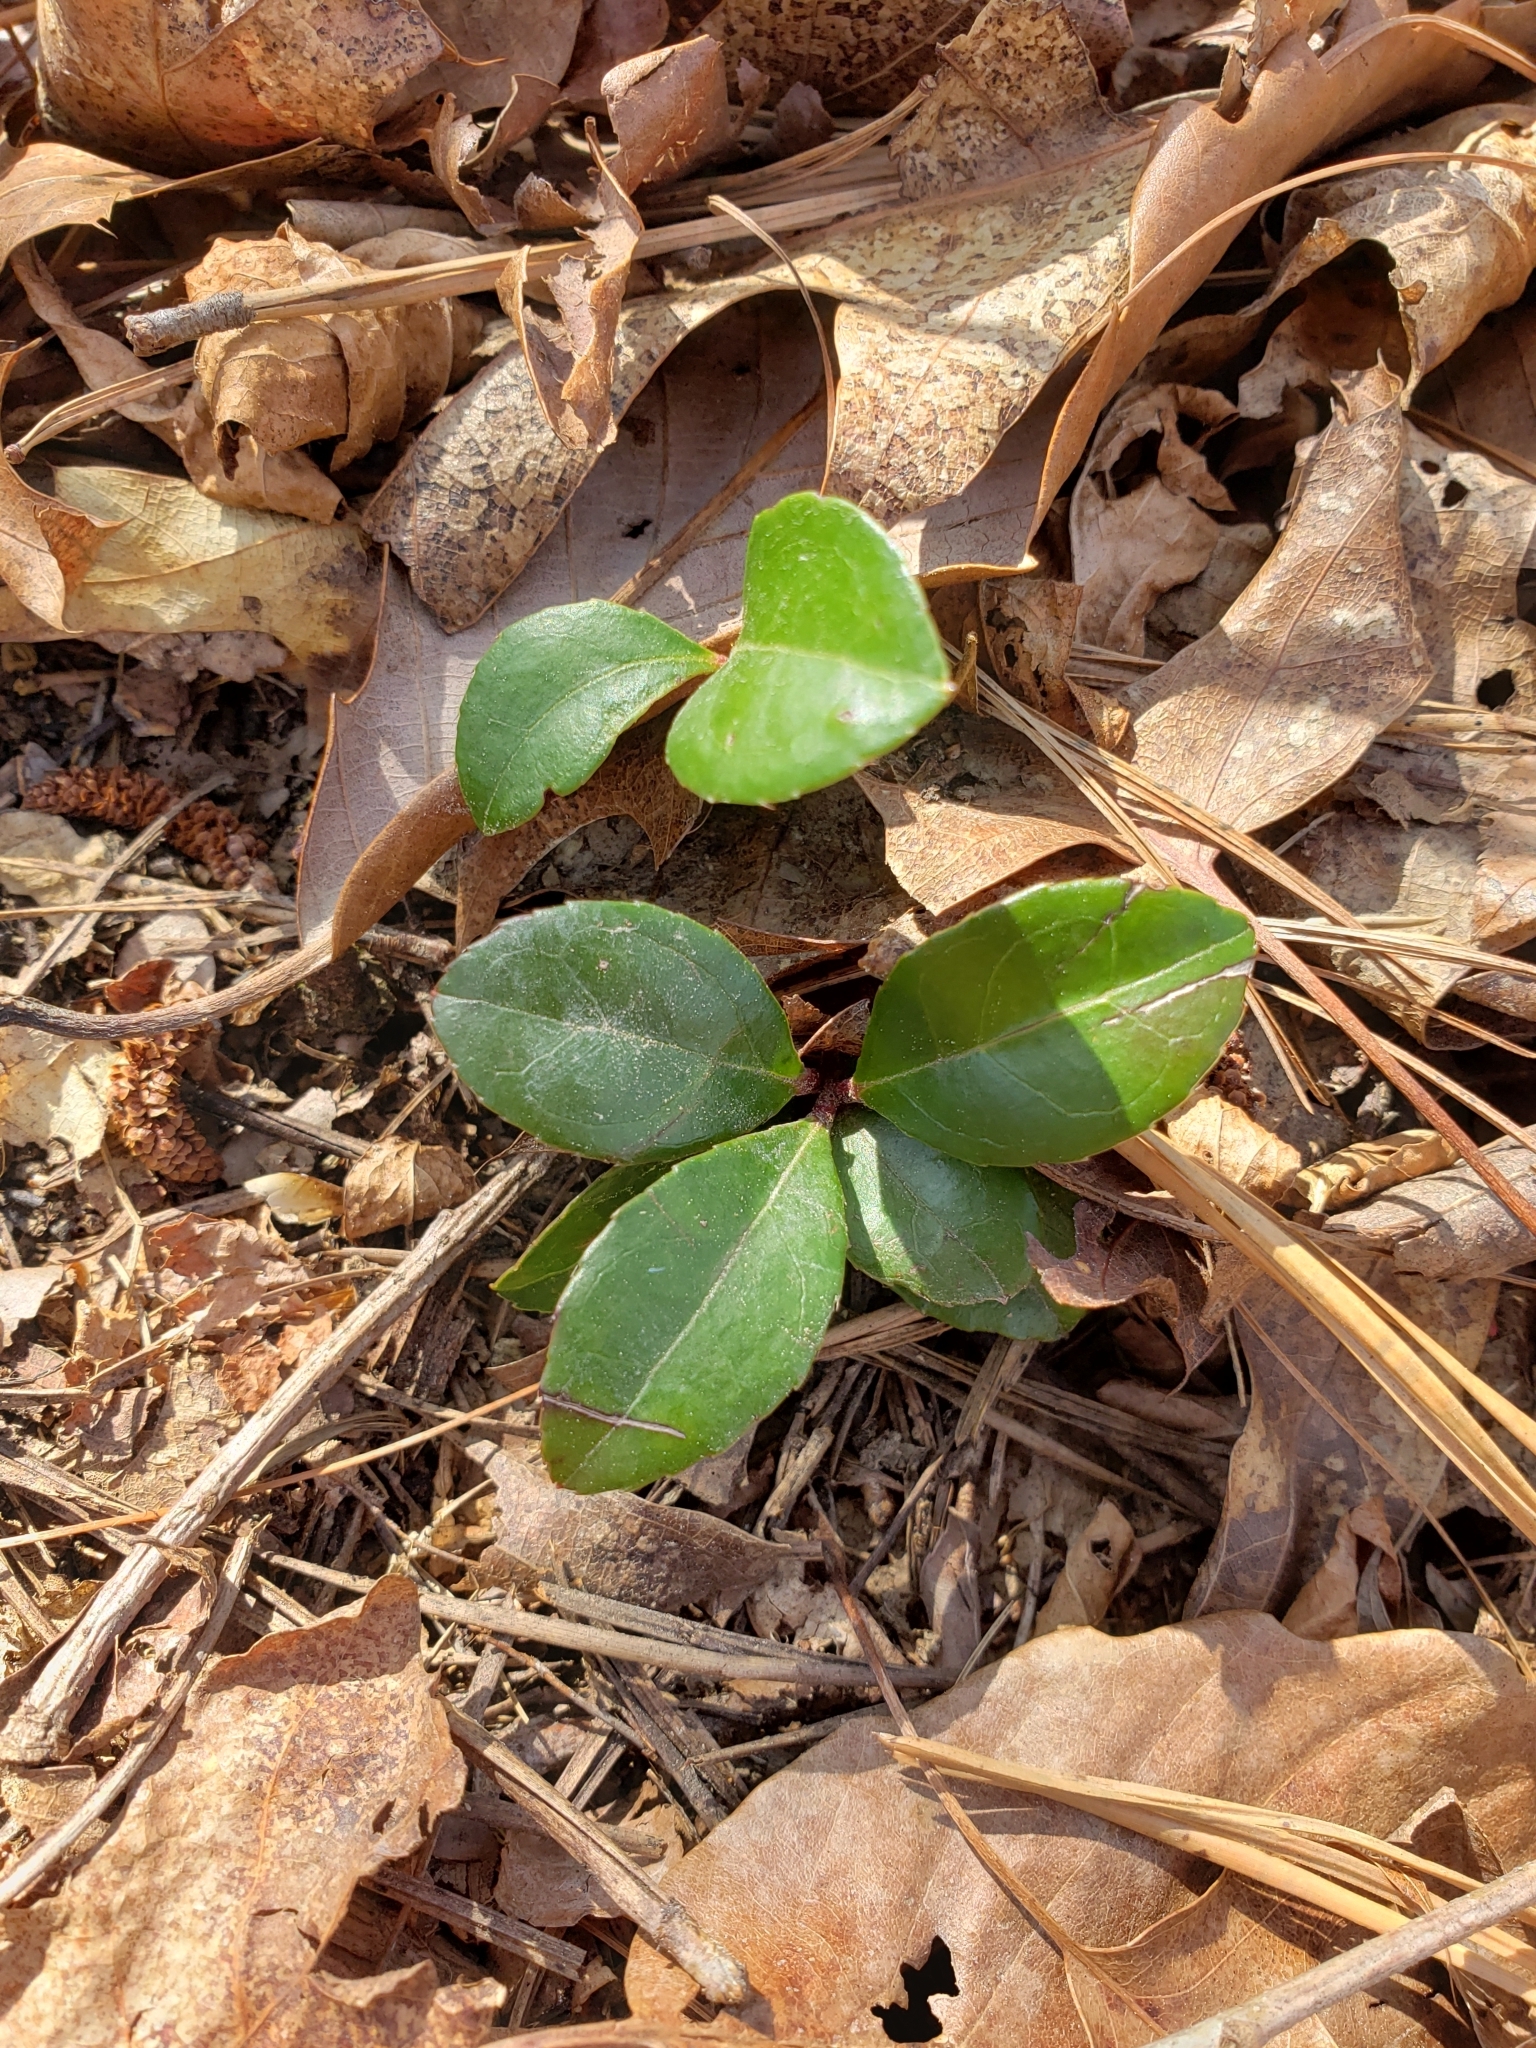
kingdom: Plantae
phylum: Tracheophyta
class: Magnoliopsida
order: Ericales
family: Ericaceae
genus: Gaultheria
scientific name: Gaultheria procumbens
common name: Checkerberry
